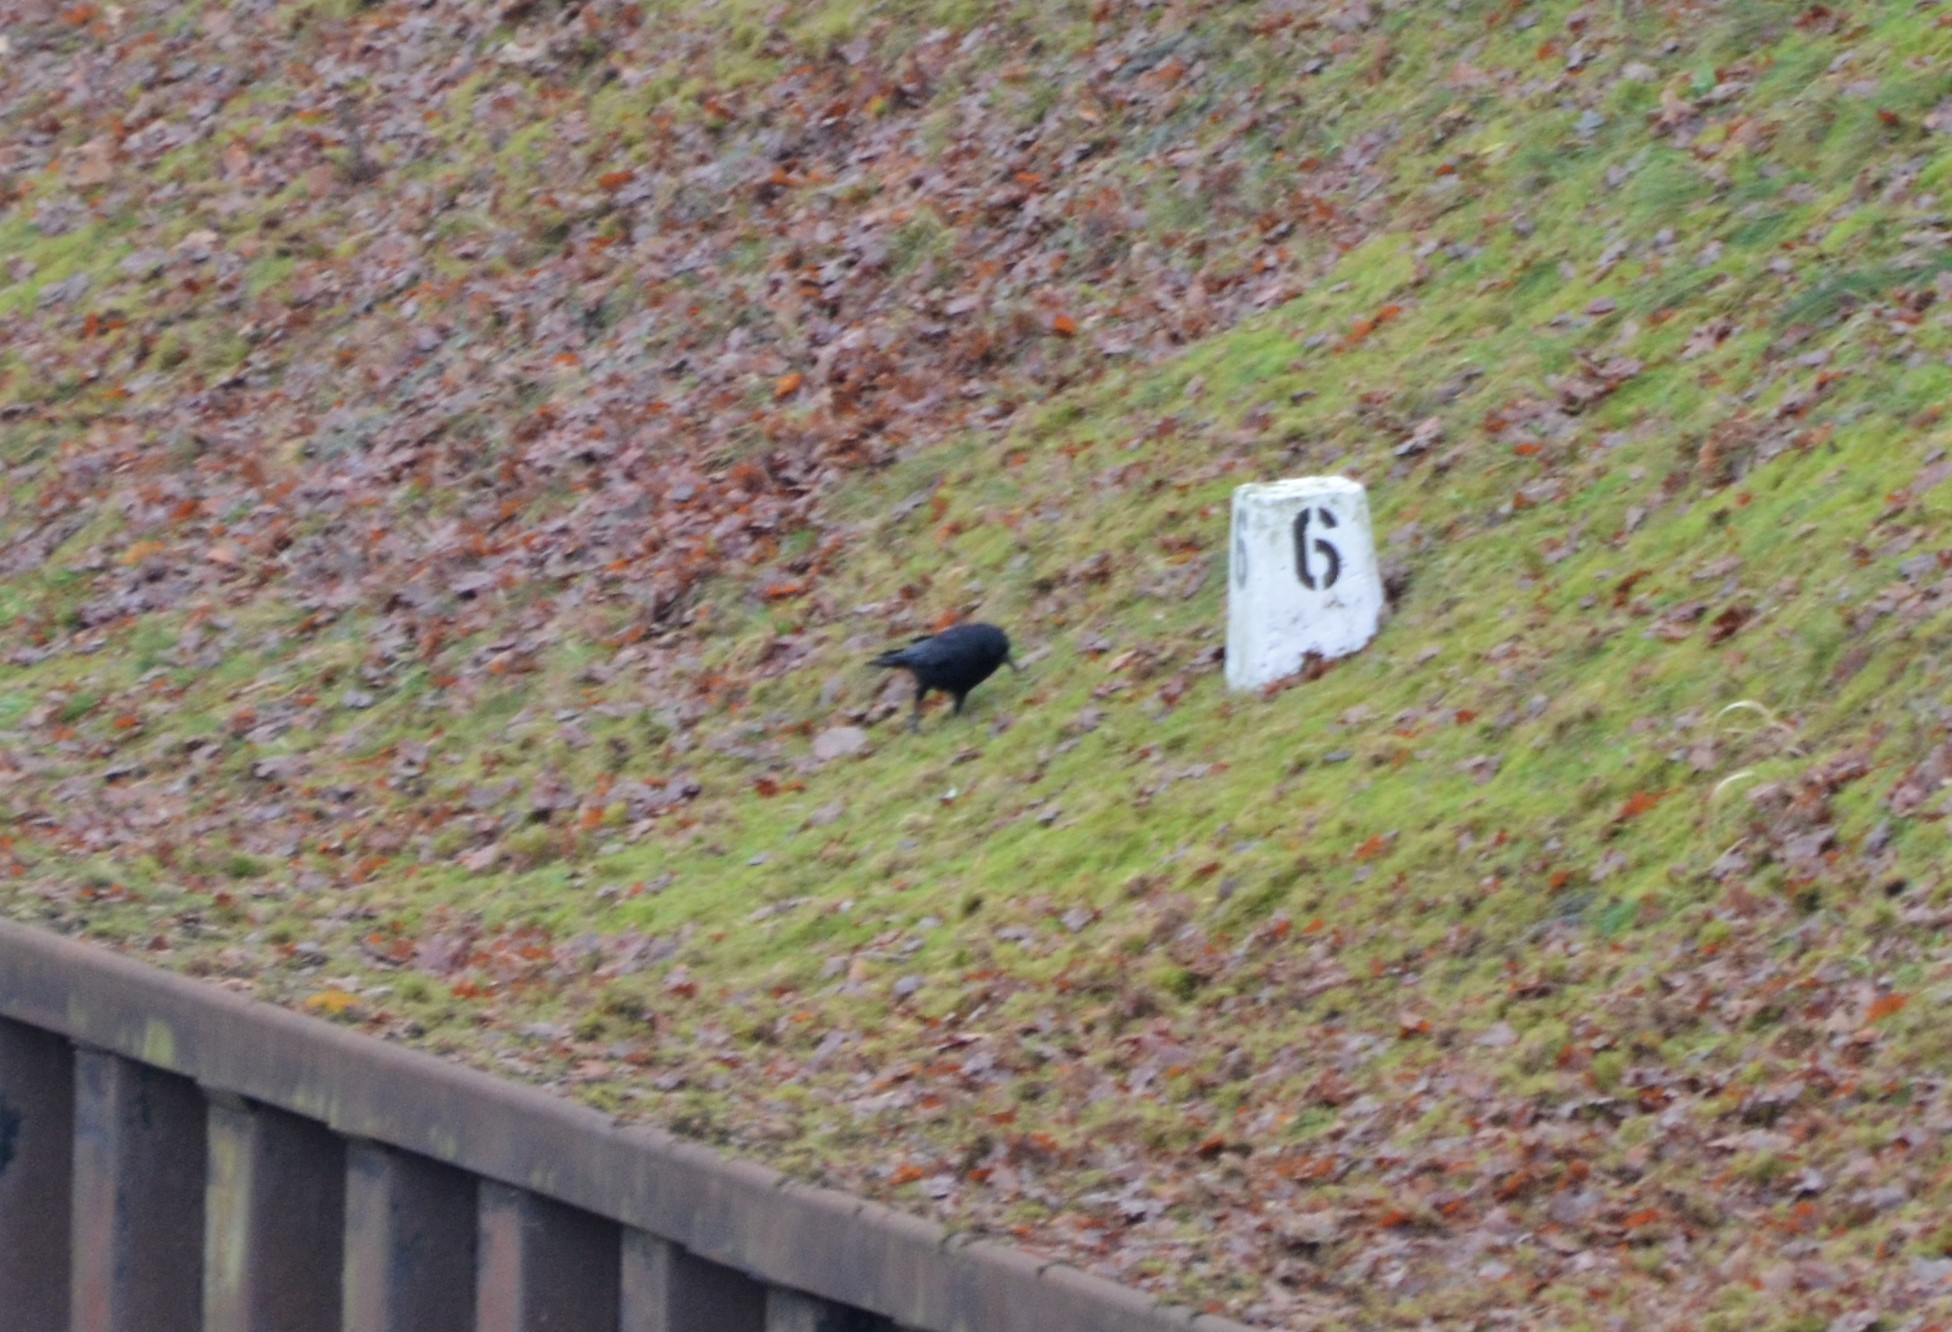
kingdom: Animalia
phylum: Chordata
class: Aves
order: Passeriformes
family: Corvidae
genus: Corvus
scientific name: Corvus corone
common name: Carrion crow
